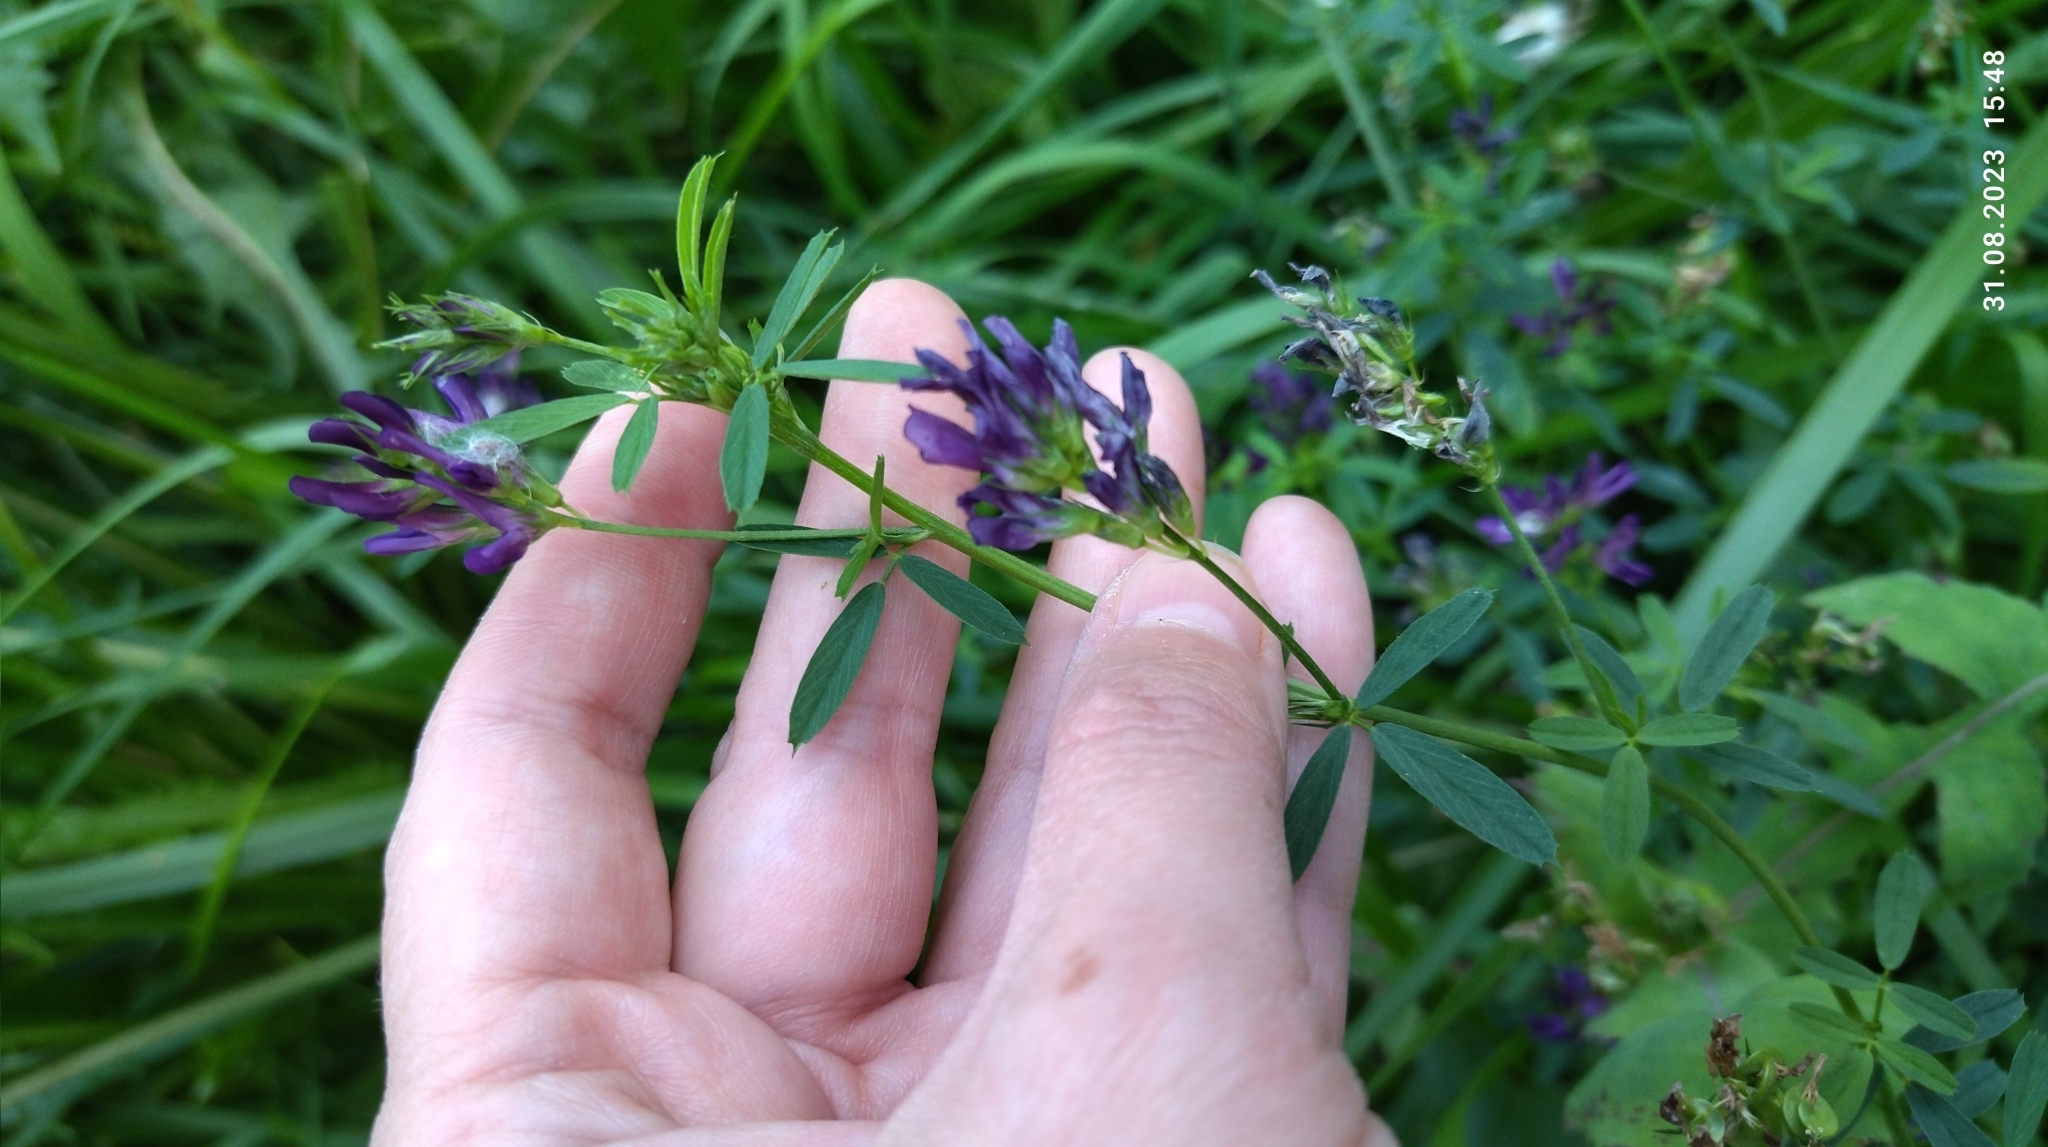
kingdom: Plantae
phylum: Tracheophyta
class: Magnoliopsida
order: Fabales
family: Fabaceae
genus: Medicago
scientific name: Medicago varia
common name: Sand lucerne
